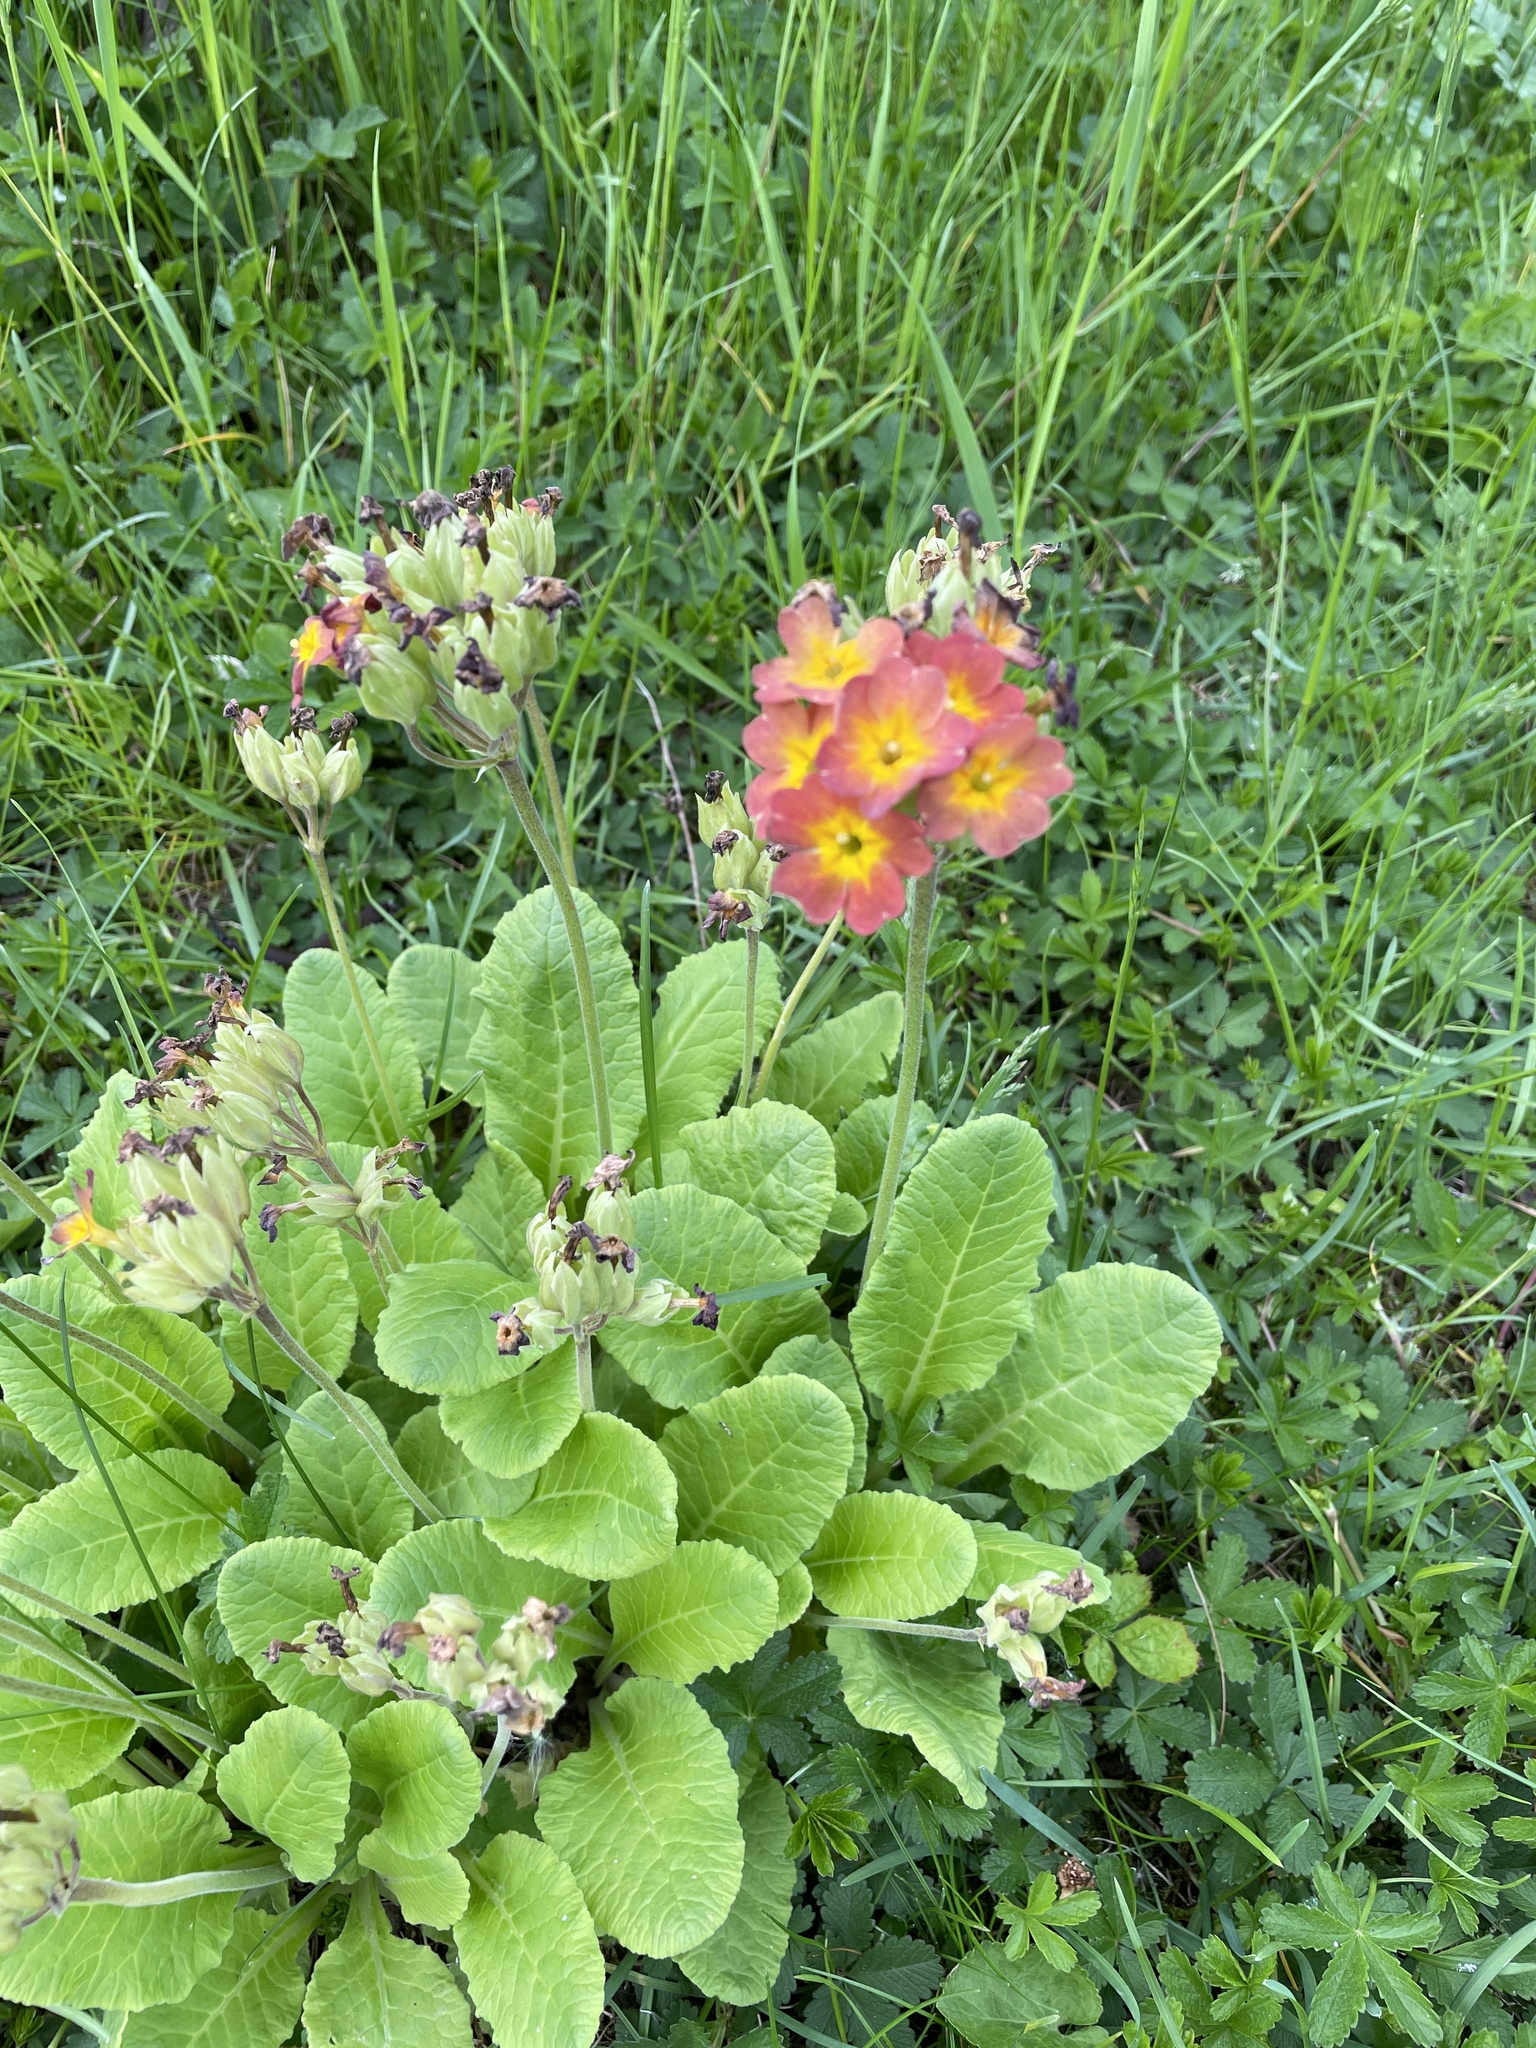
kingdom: Plantae
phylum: Tracheophyta
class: Magnoliopsida
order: Ericales
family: Primulaceae
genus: Primula
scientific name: Primula polyantha
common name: False oxlip
